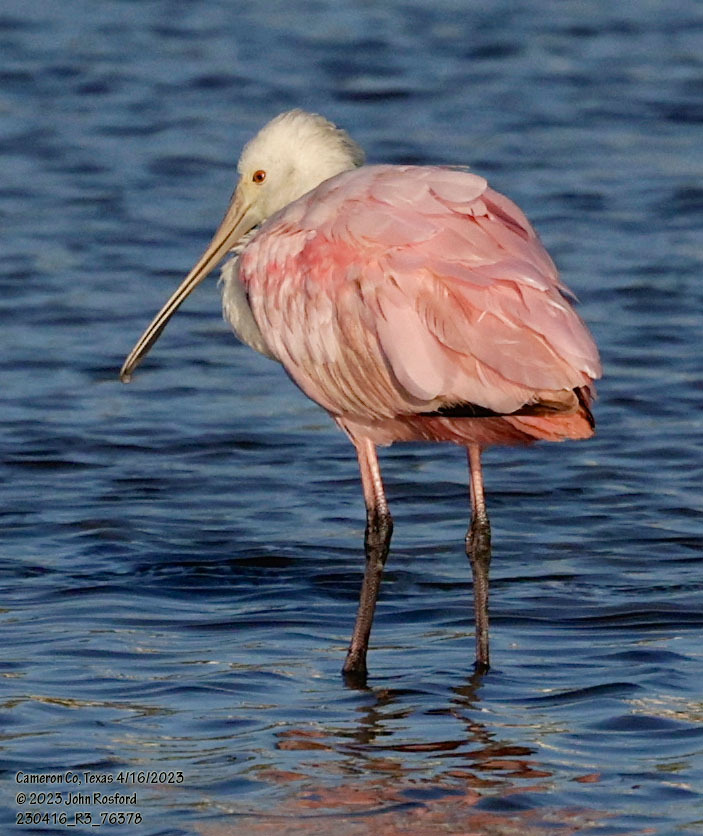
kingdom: Animalia
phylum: Chordata
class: Aves
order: Pelecaniformes
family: Threskiornithidae
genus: Platalea
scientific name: Platalea ajaja
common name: Roseate spoonbill
